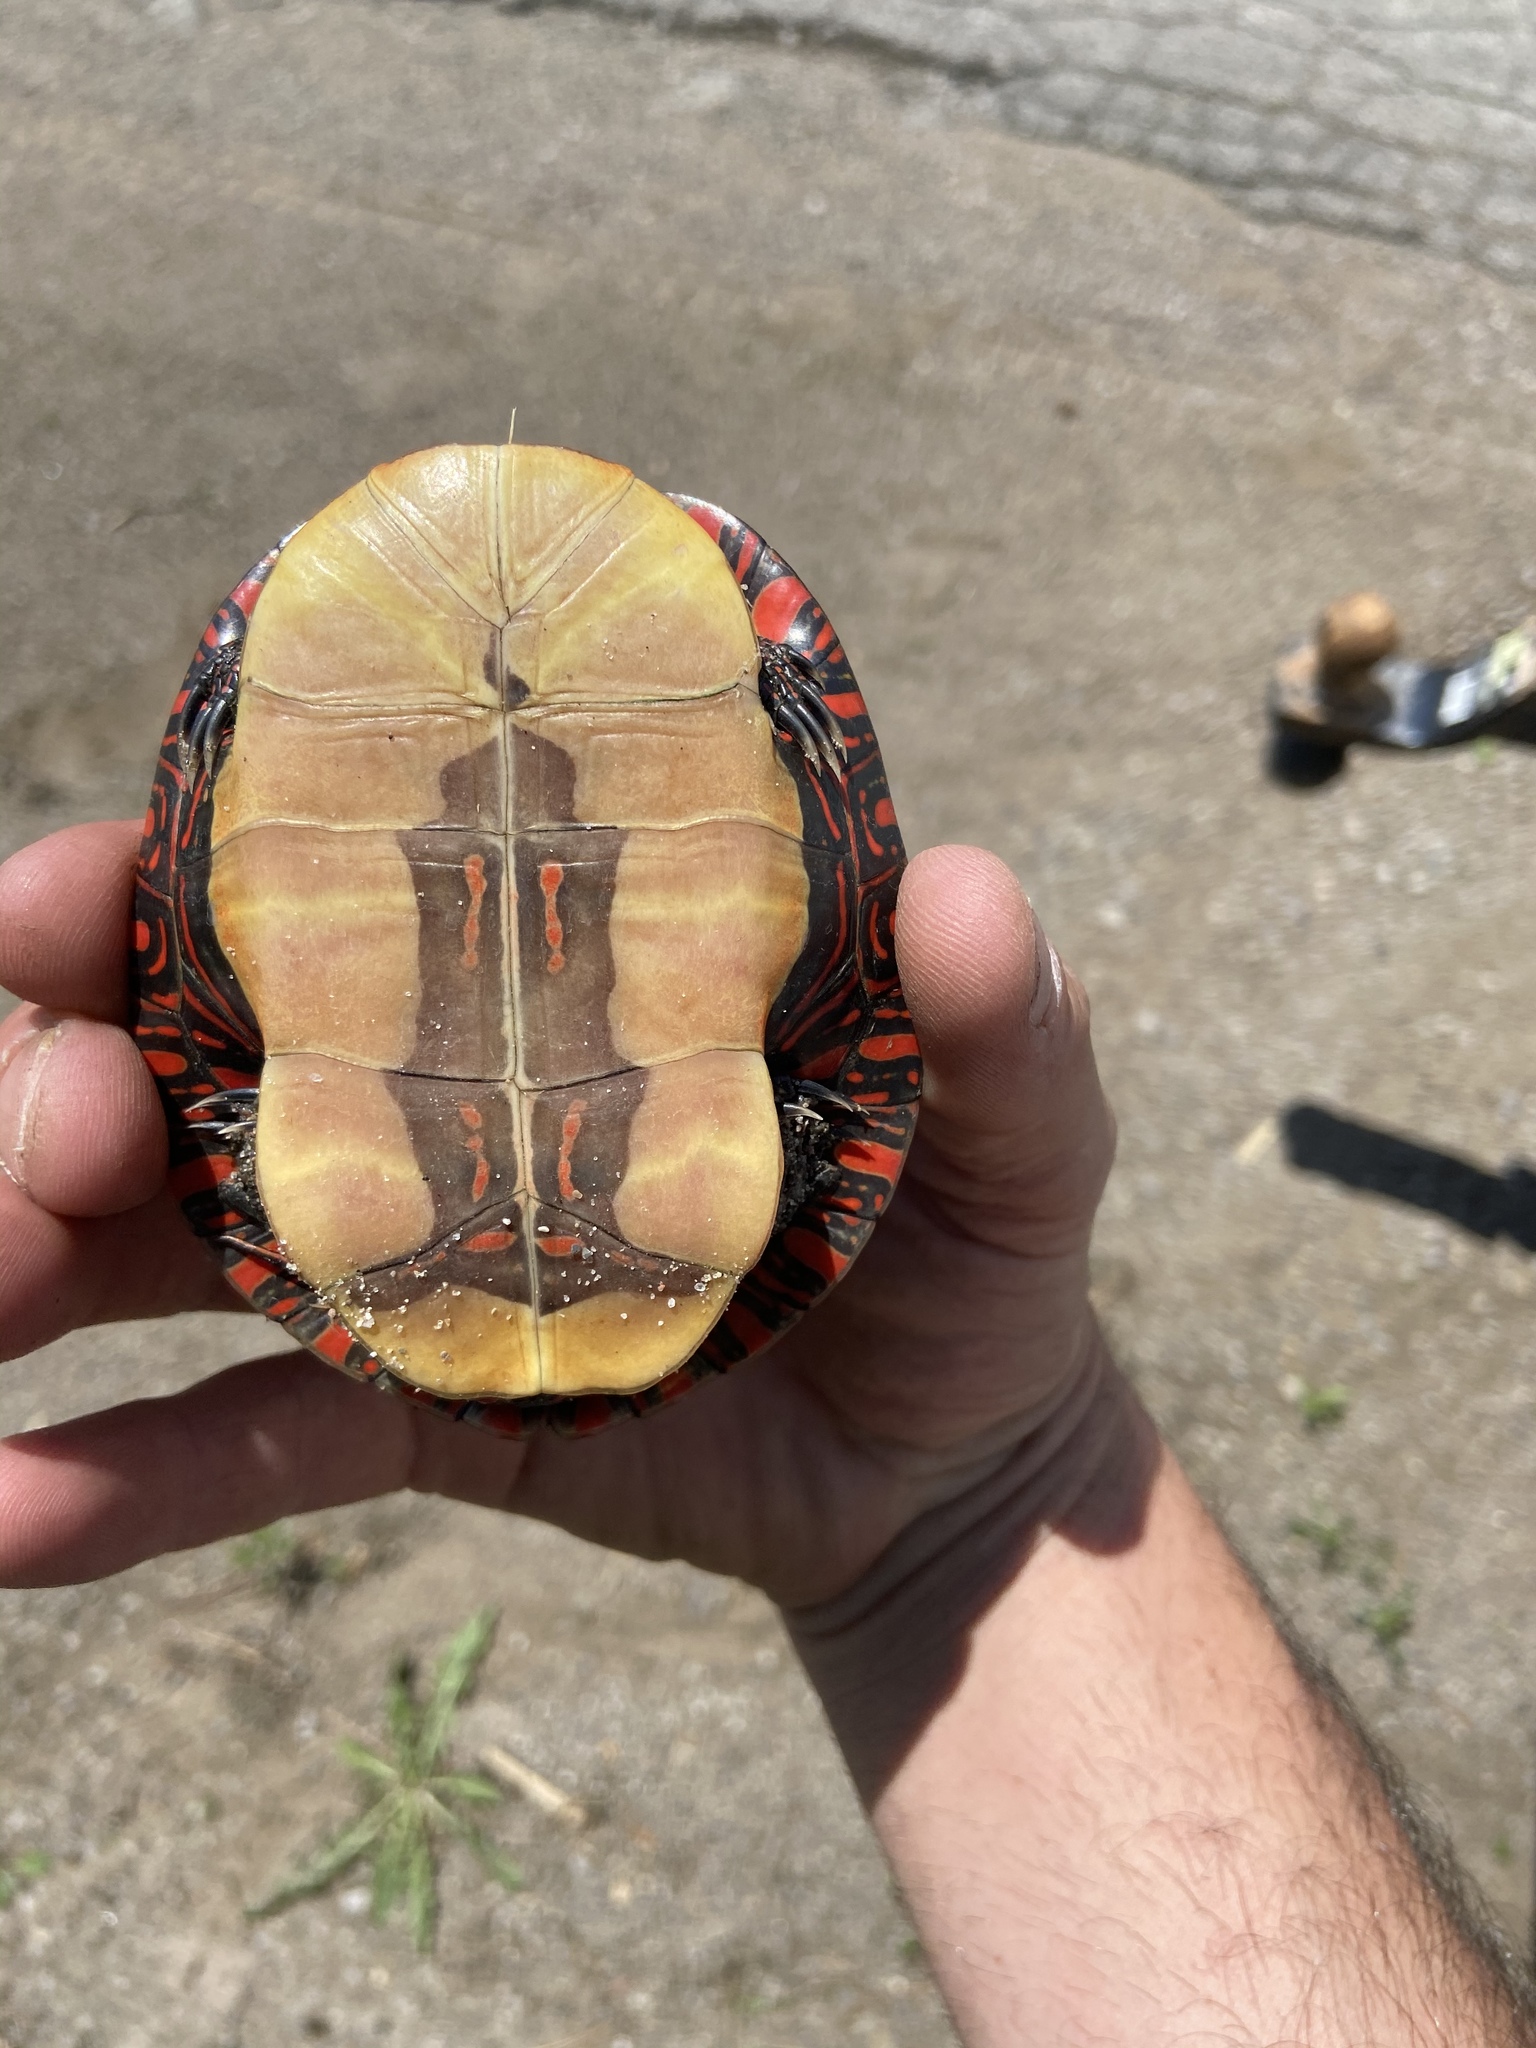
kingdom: Animalia
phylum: Chordata
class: Testudines
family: Emydidae
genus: Chrysemys
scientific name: Chrysemys picta
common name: Painted turtle
